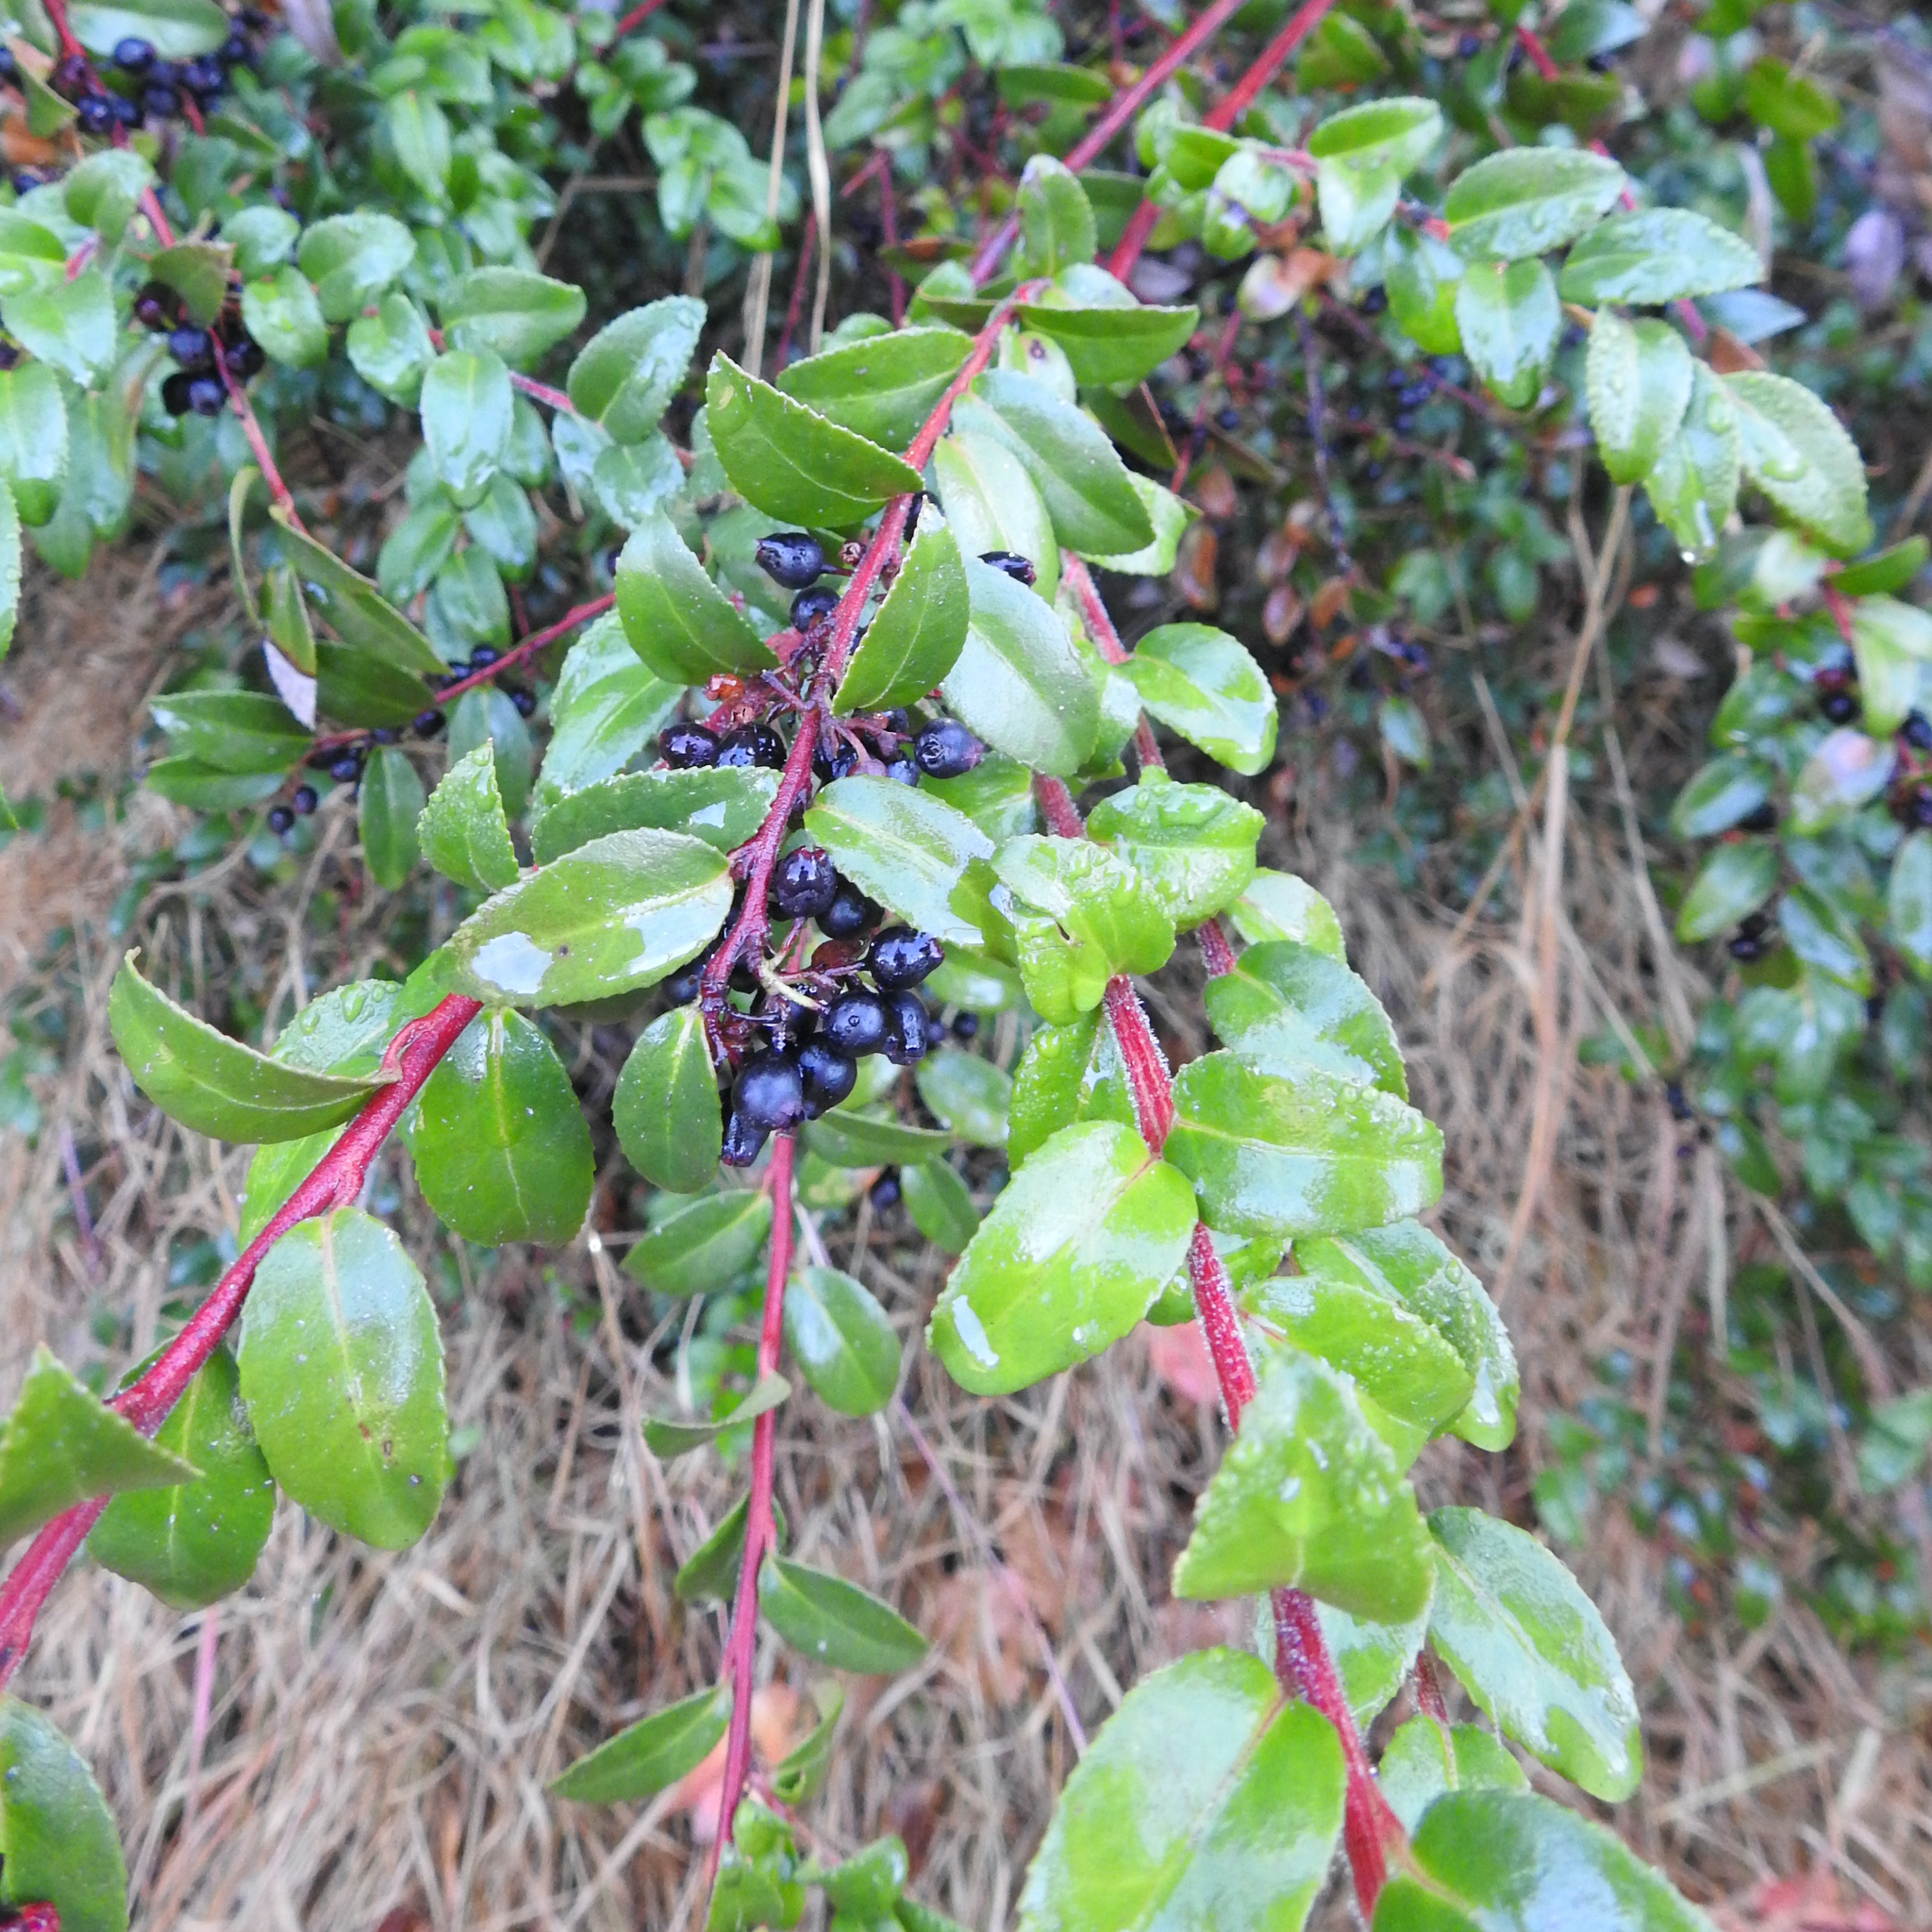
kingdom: Plantae
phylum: Tracheophyta
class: Magnoliopsida
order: Ericales
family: Ericaceae
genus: Vaccinium
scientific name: Vaccinium ovatum
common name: California-huckleberry
